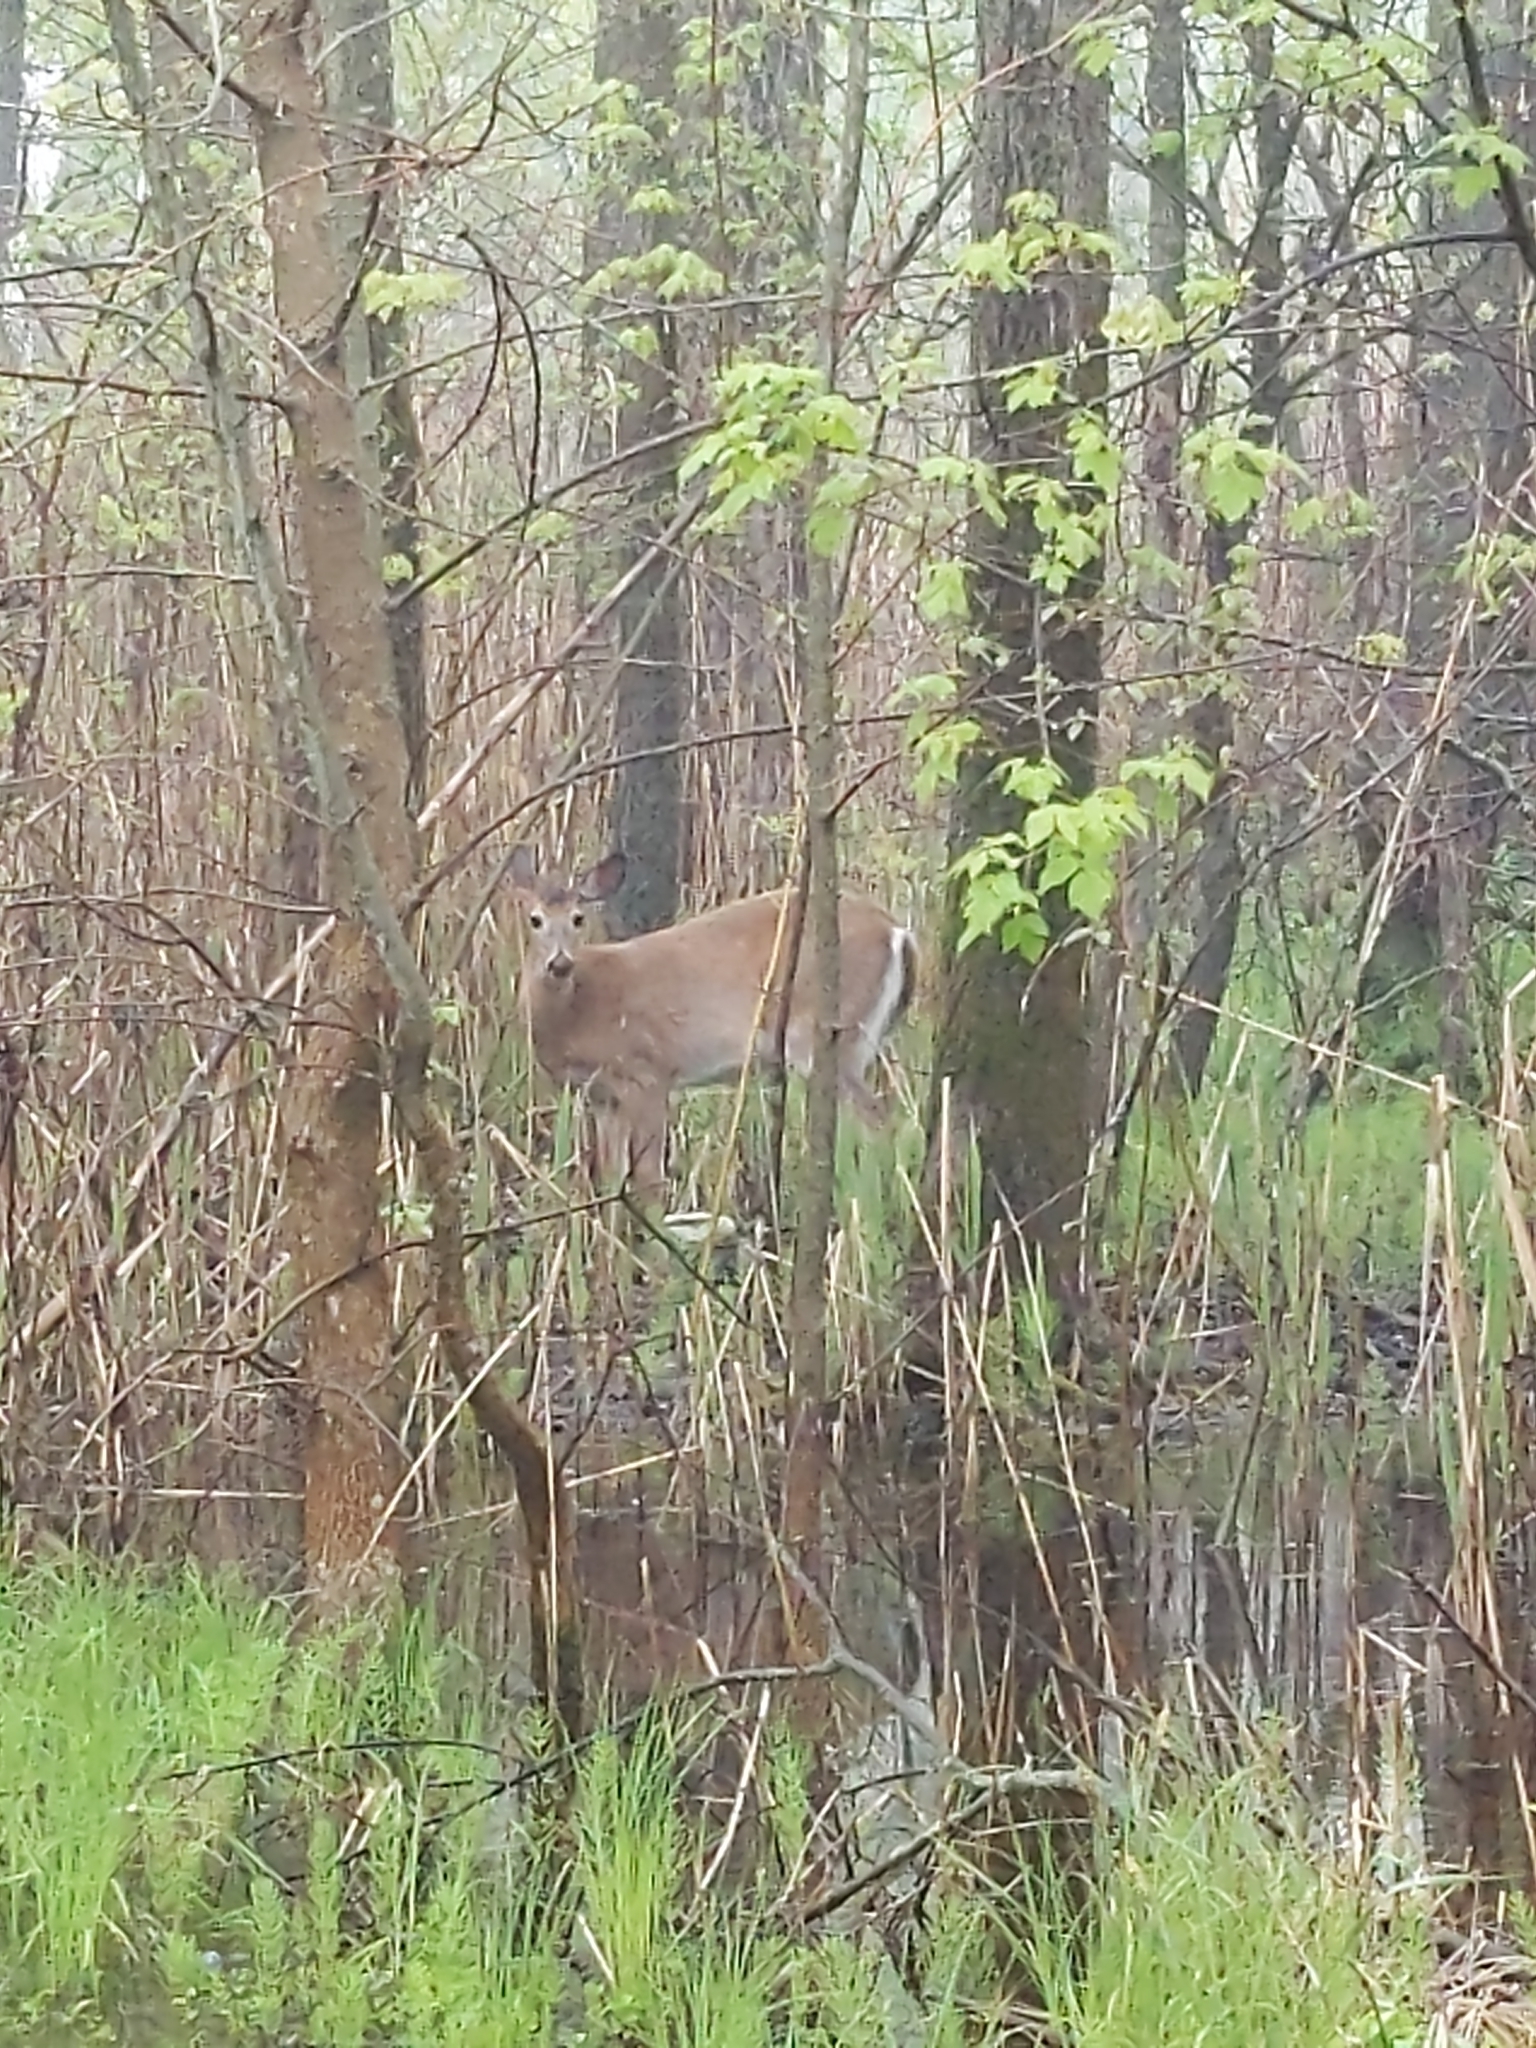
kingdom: Animalia
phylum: Chordata
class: Mammalia
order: Artiodactyla
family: Cervidae
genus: Odocoileus
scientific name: Odocoileus virginianus
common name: White-tailed deer
